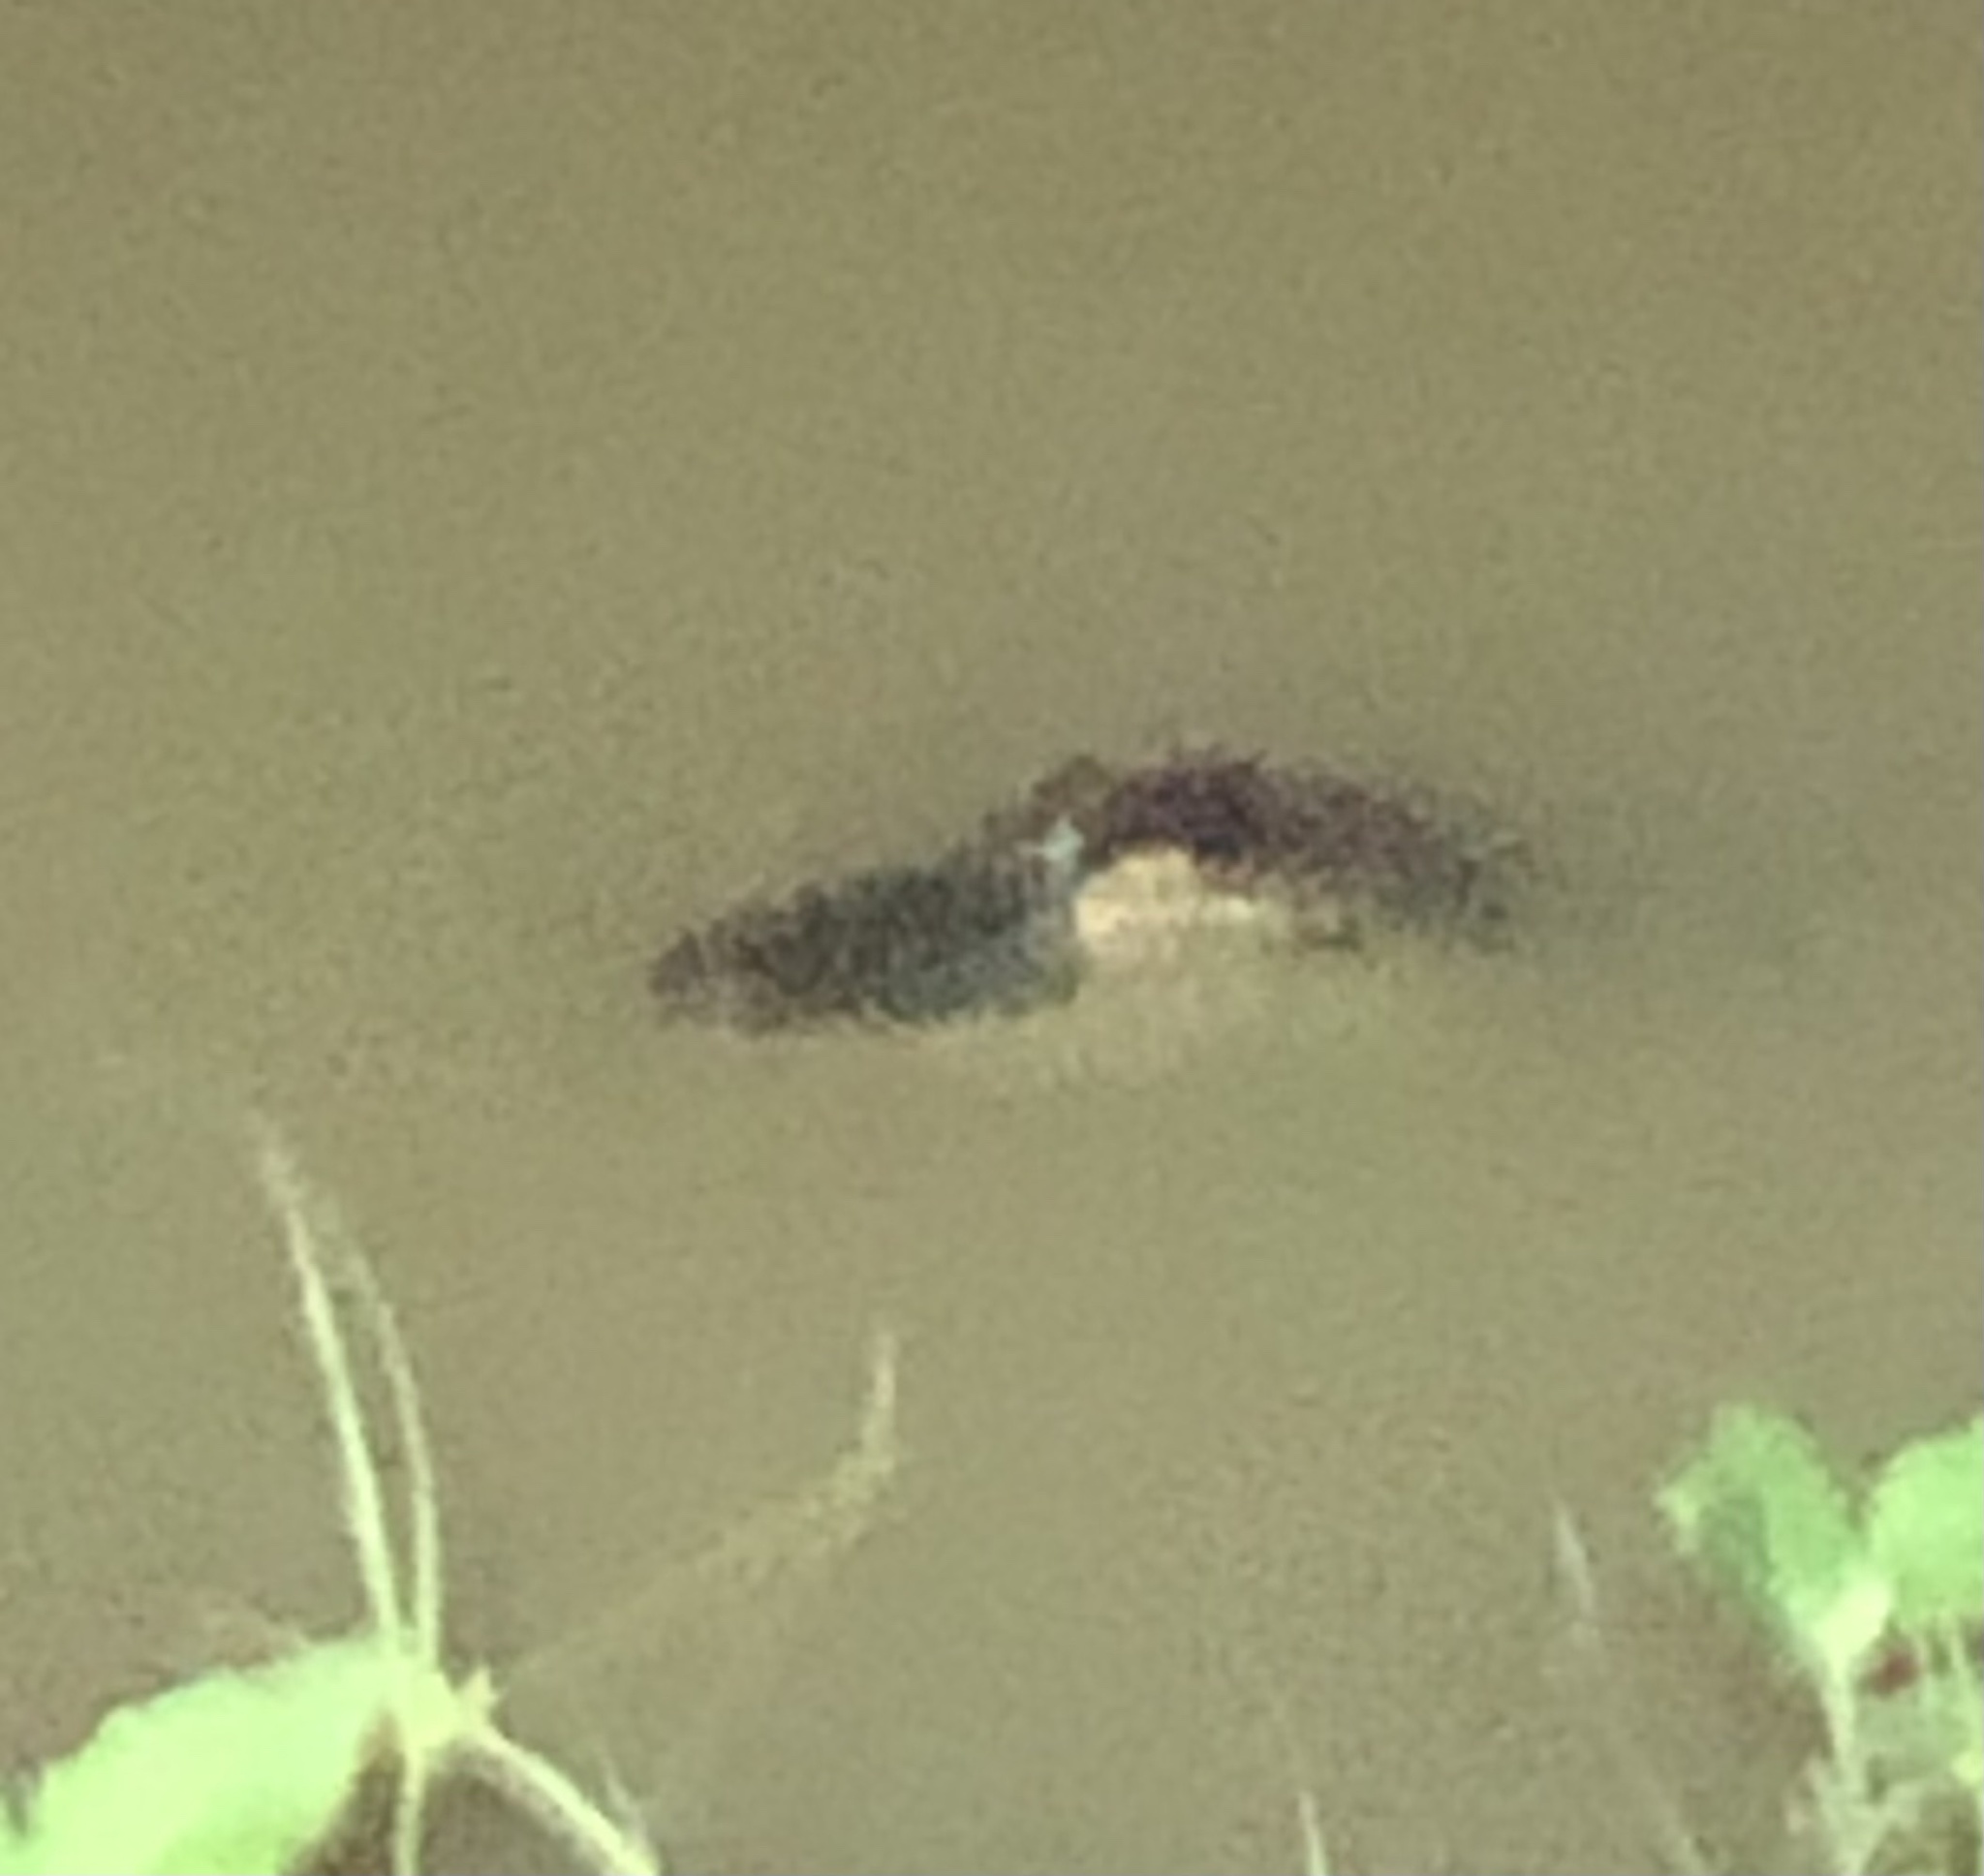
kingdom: Animalia
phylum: Chordata
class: Crocodylia
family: Alligatoridae
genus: Alligator
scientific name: Alligator mississippiensis
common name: American alligator
